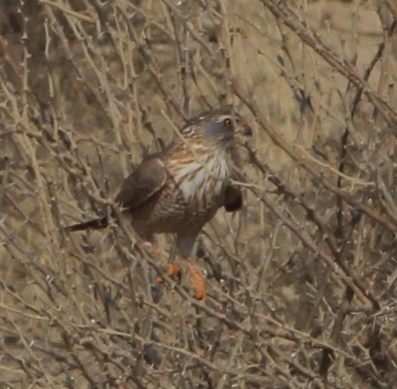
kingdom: Animalia
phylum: Chordata
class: Aves
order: Accipitriformes
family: Accipitridae
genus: Micronisus
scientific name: Micronisus gabar
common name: Gabar goshawk
